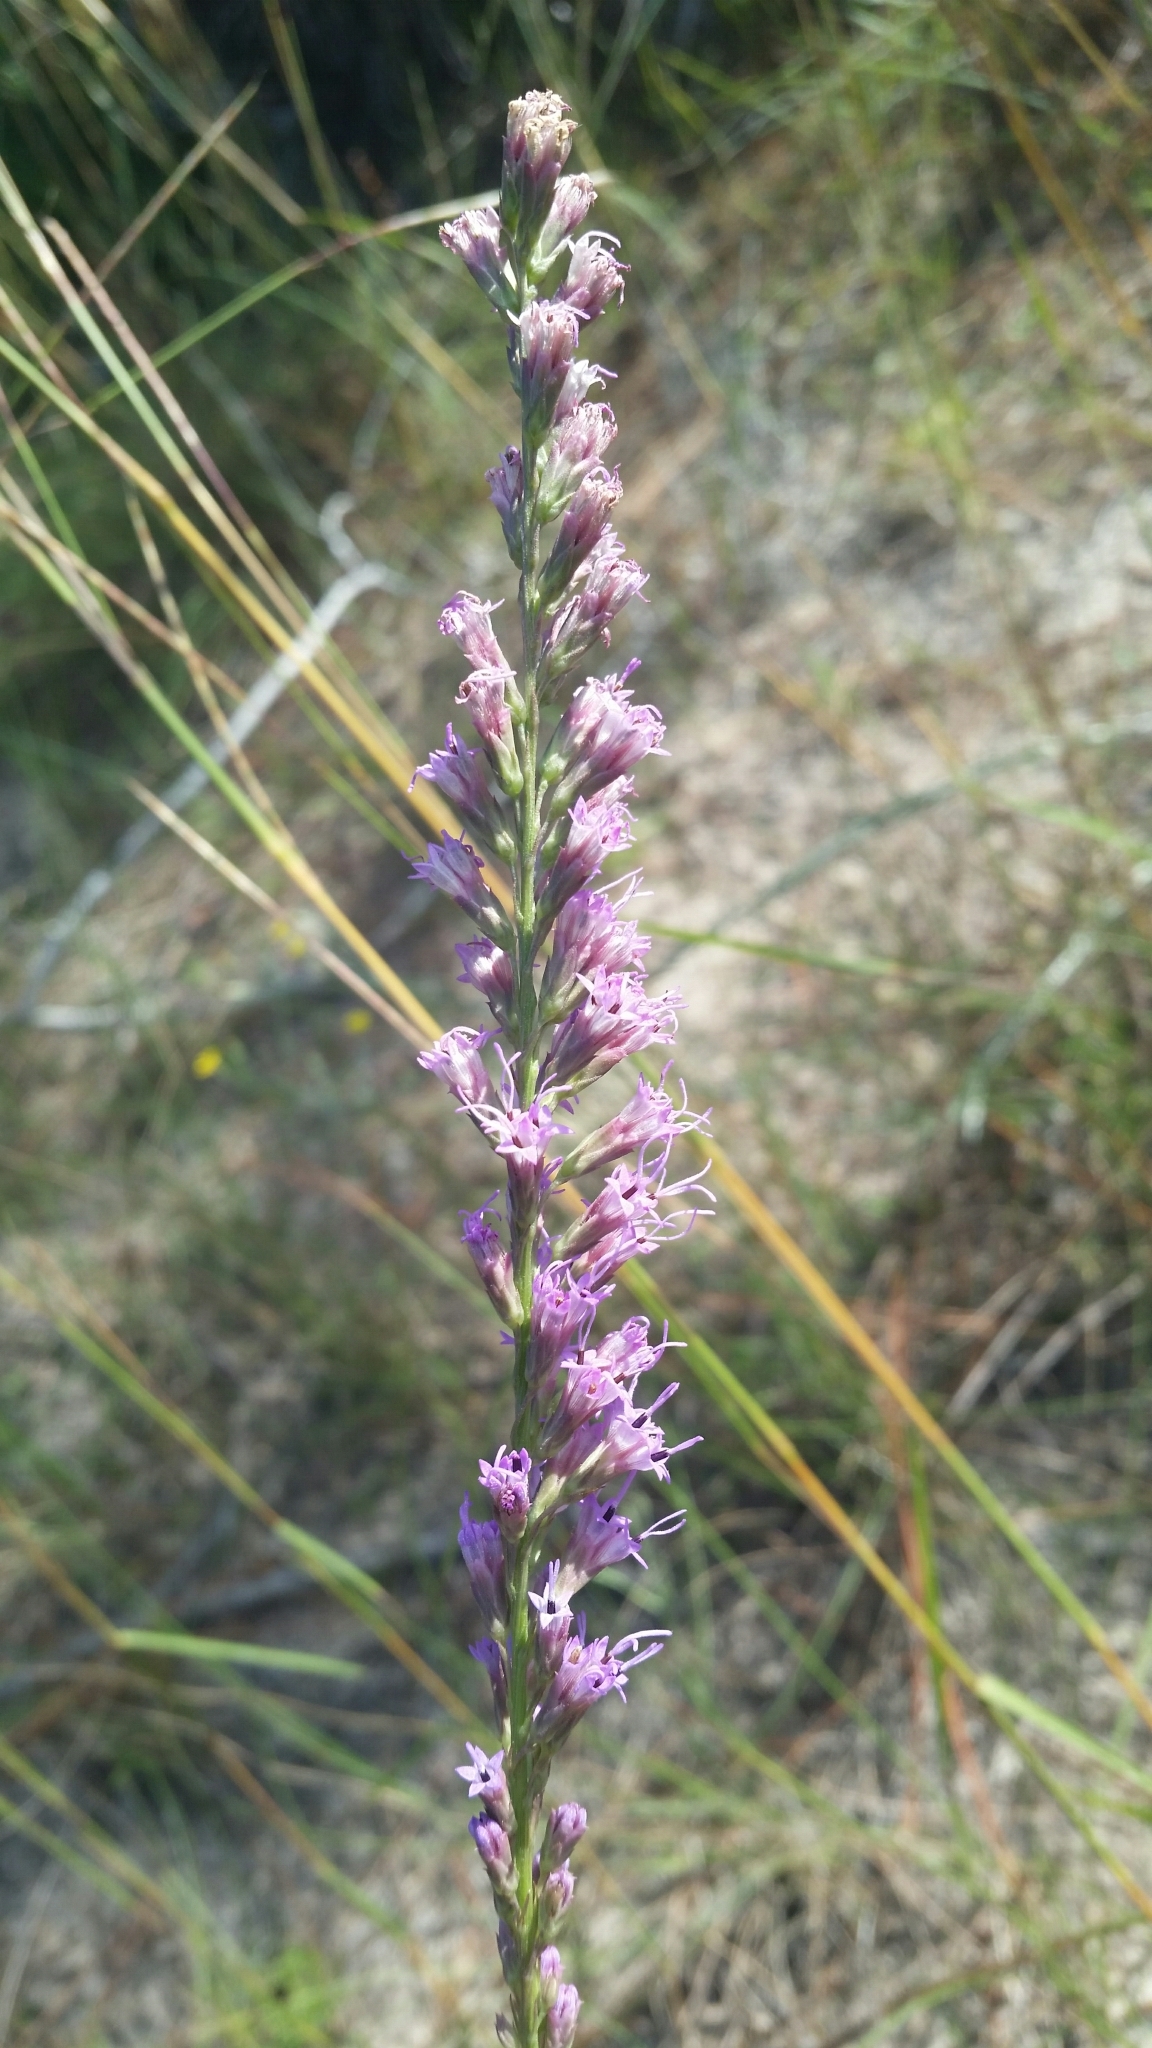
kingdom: Plantae
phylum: Tracheophyta
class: Magnoliopsida
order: Asterales
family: Asteraceae
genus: Liatris
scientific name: Liatris quadriflora
